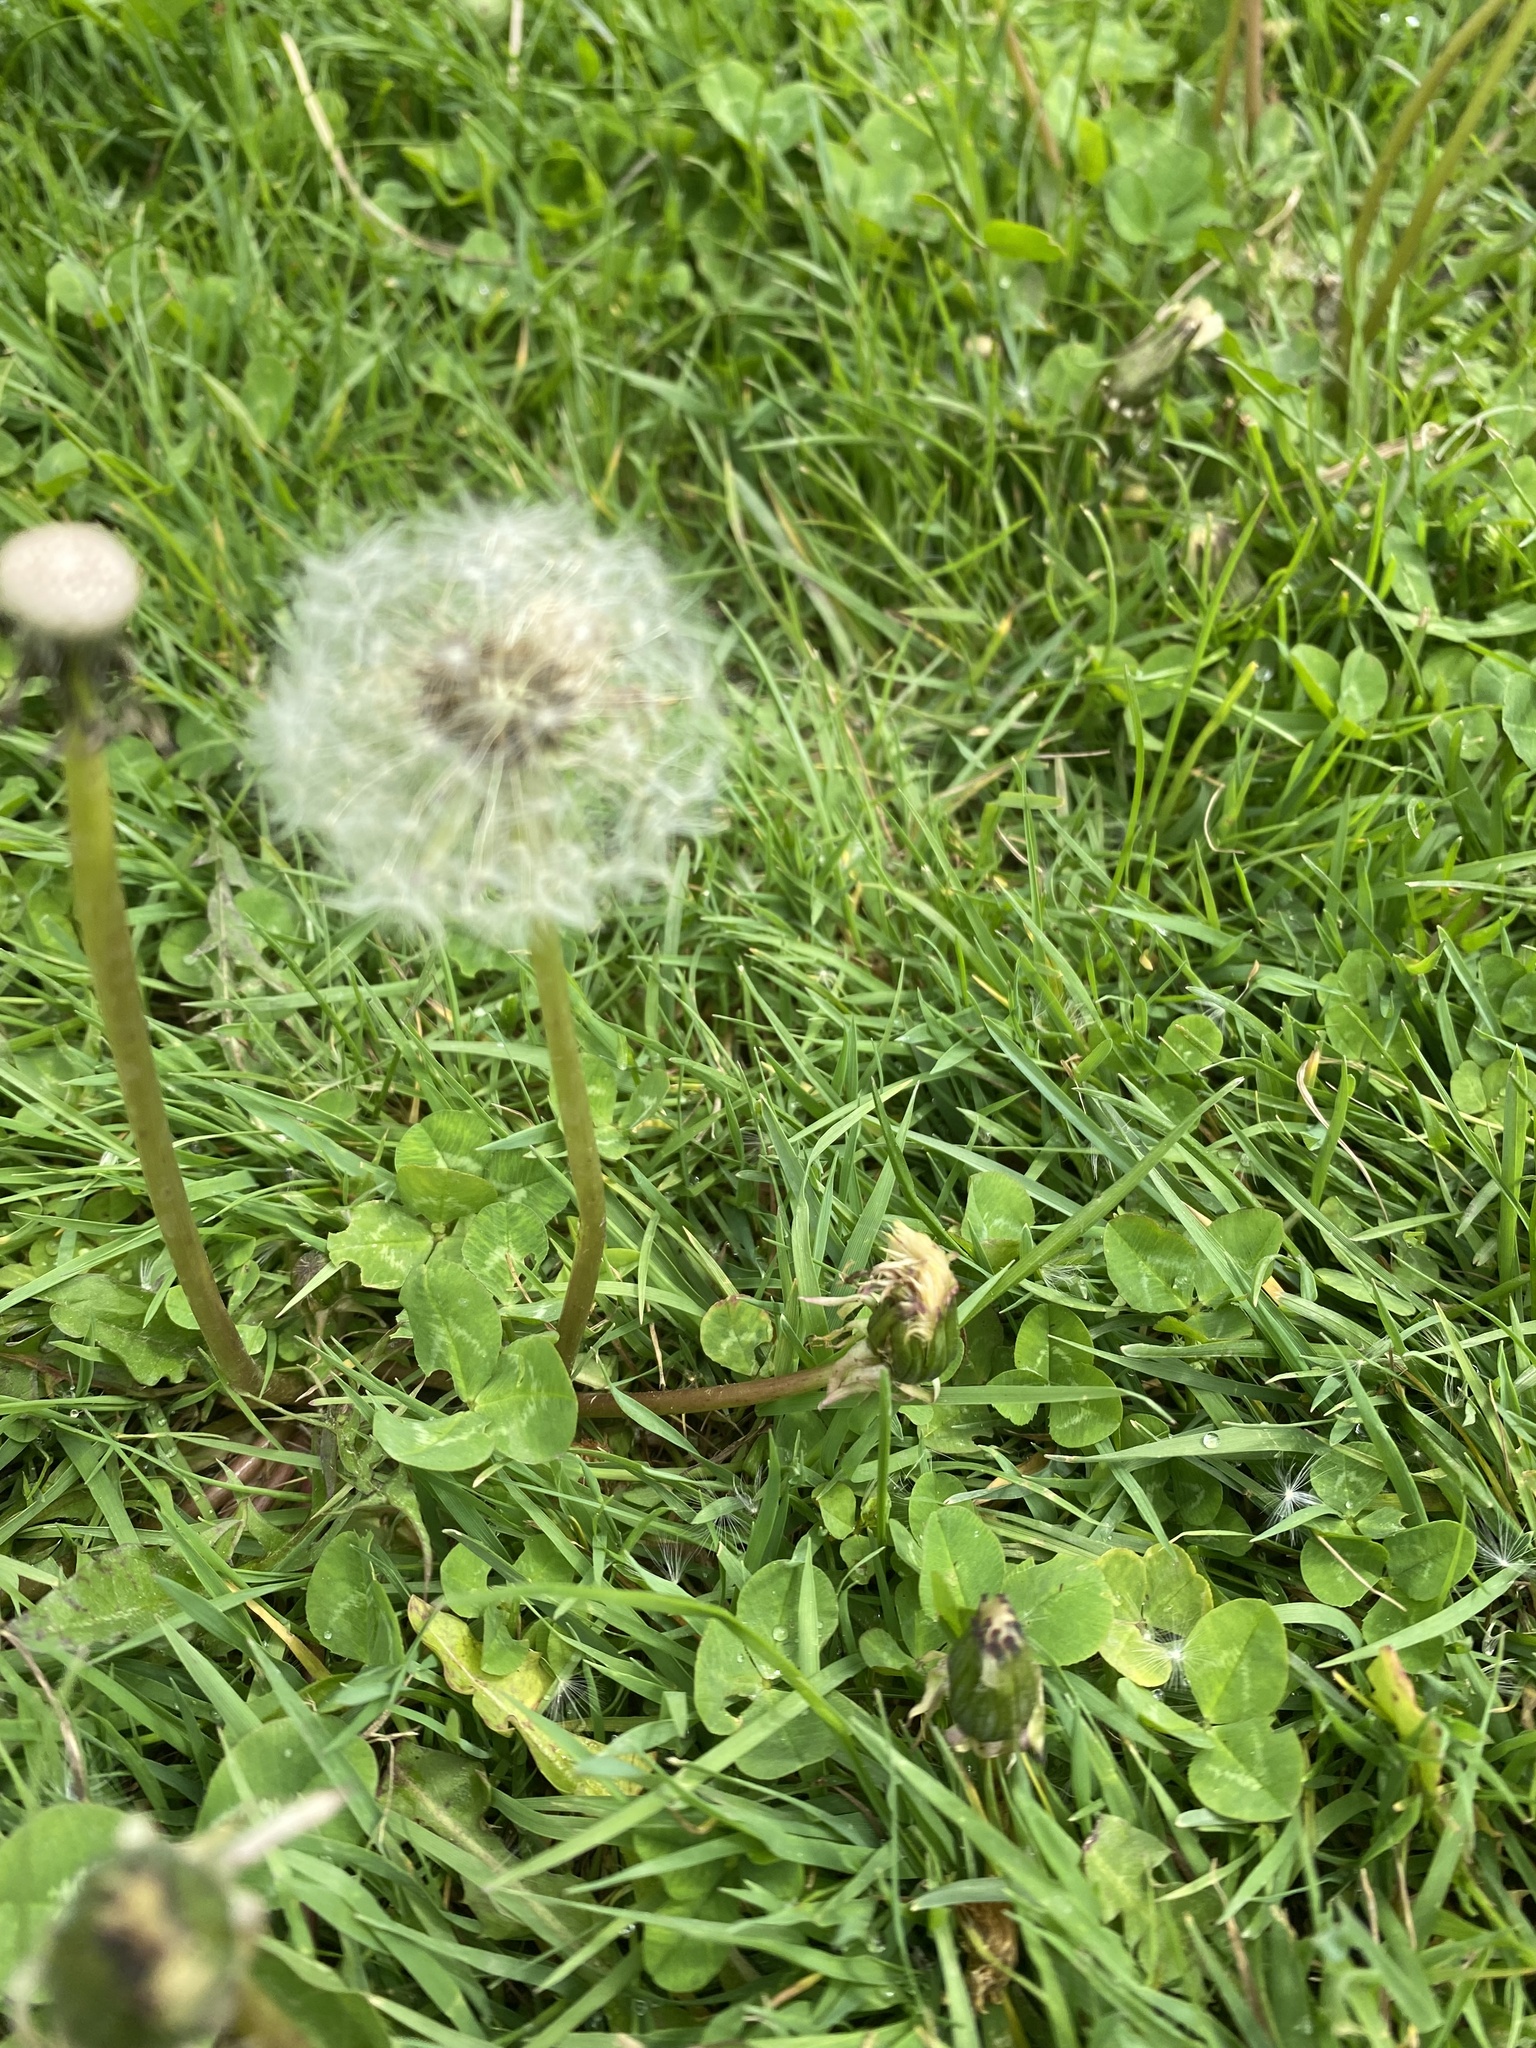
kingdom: Plantae
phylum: Tracheophyta
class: Magnoliopsida
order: Asterales
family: Asteraceae
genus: Taraxacum
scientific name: Taraxacum officinale
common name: Common dandelion
